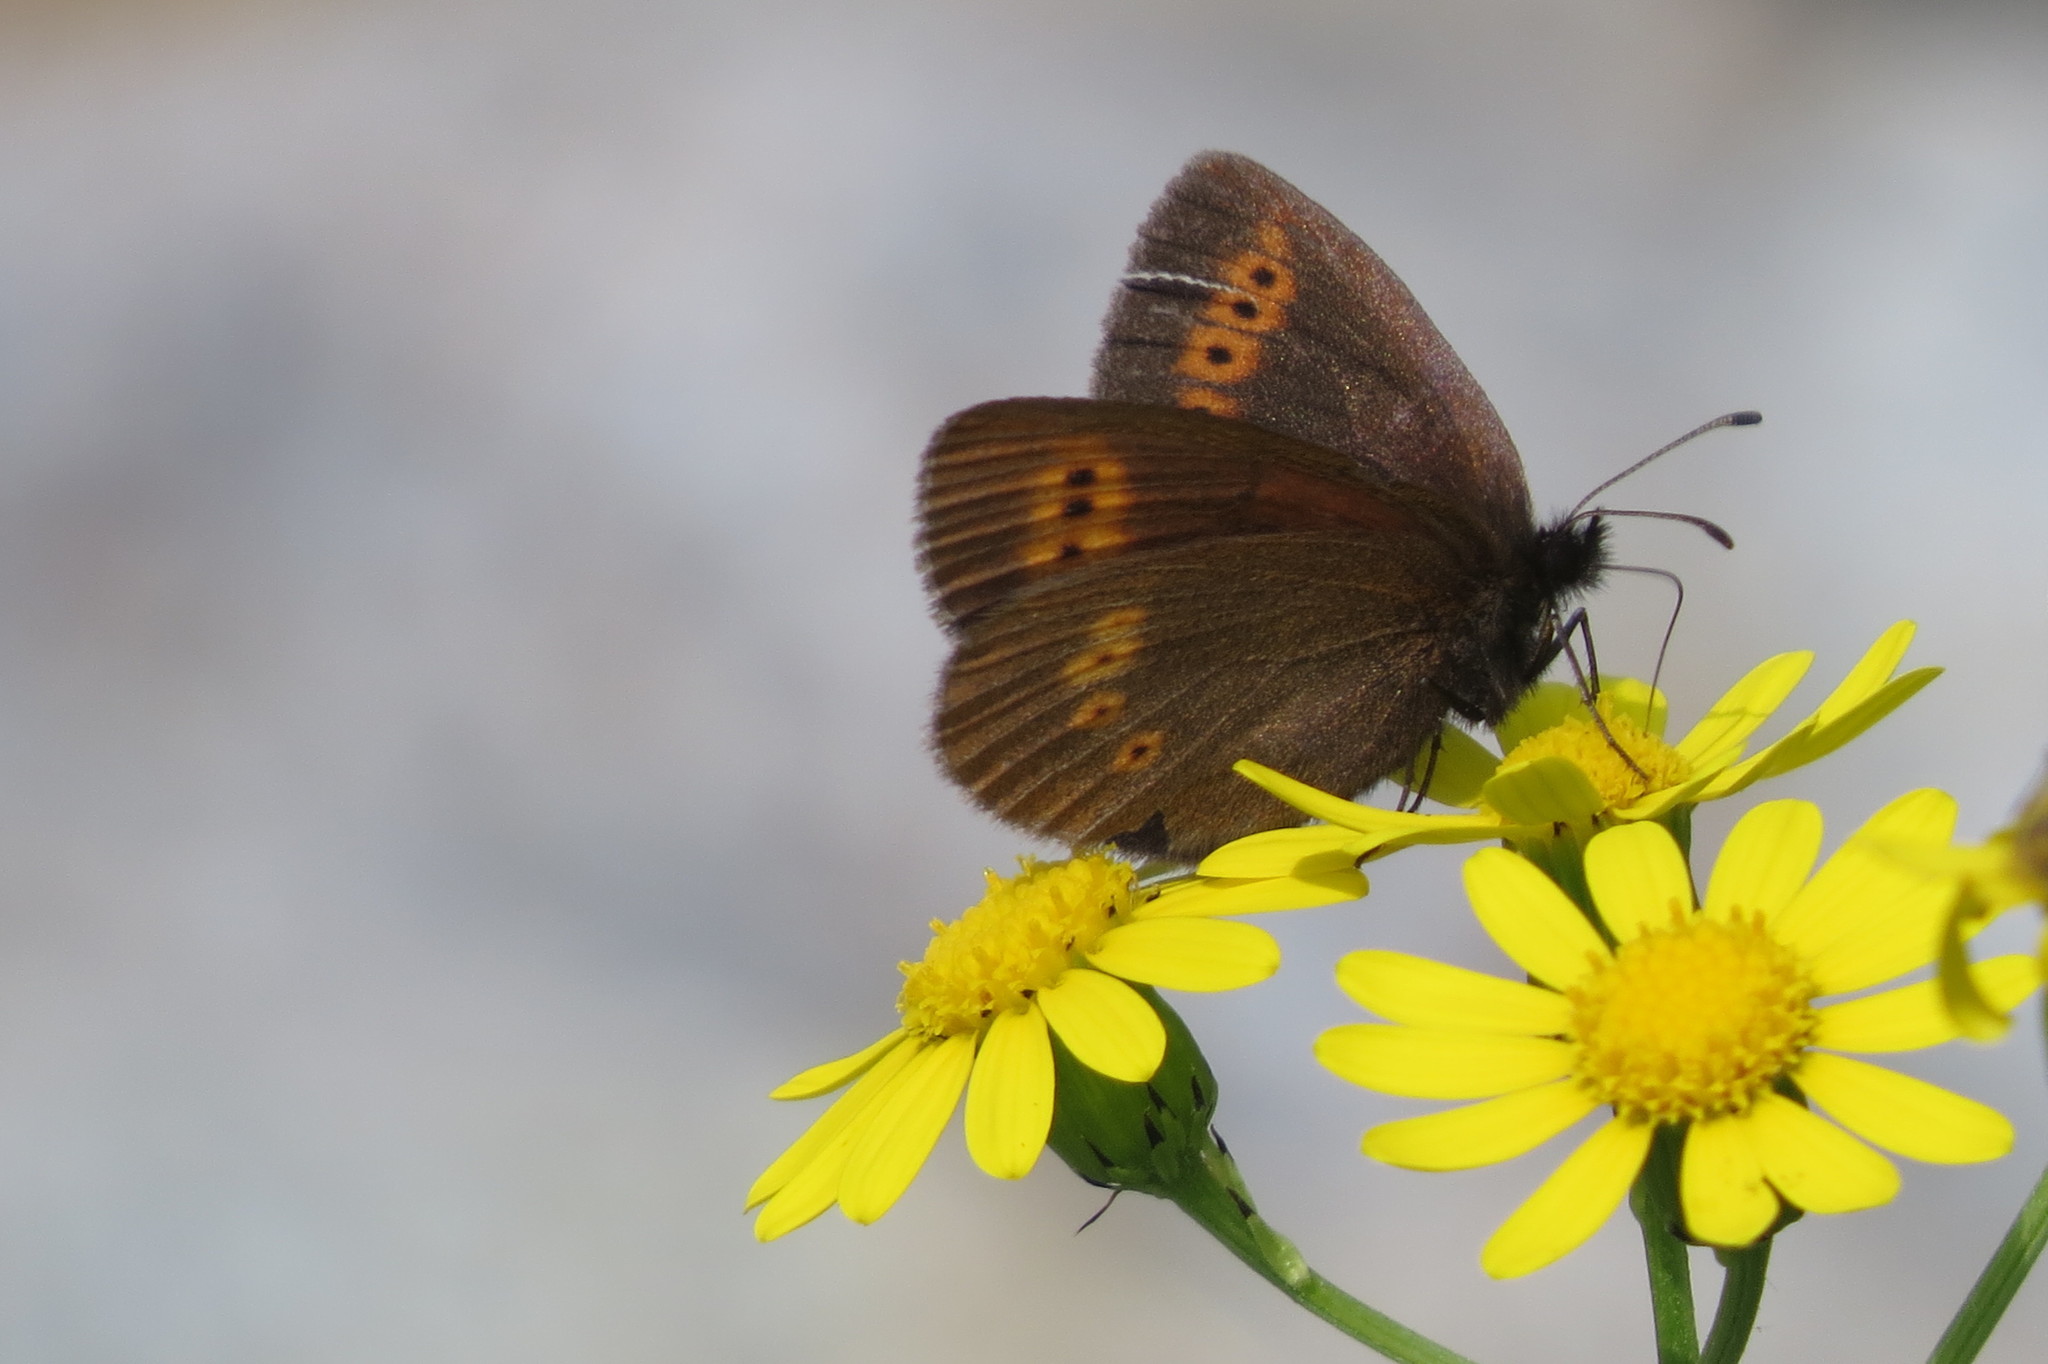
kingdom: Animalia
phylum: Arthropoda
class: Insecta
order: Lepidoptera
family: Nymphalidae
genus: Erebia
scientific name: Erebia melampus
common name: Lesser mountain ringlet
